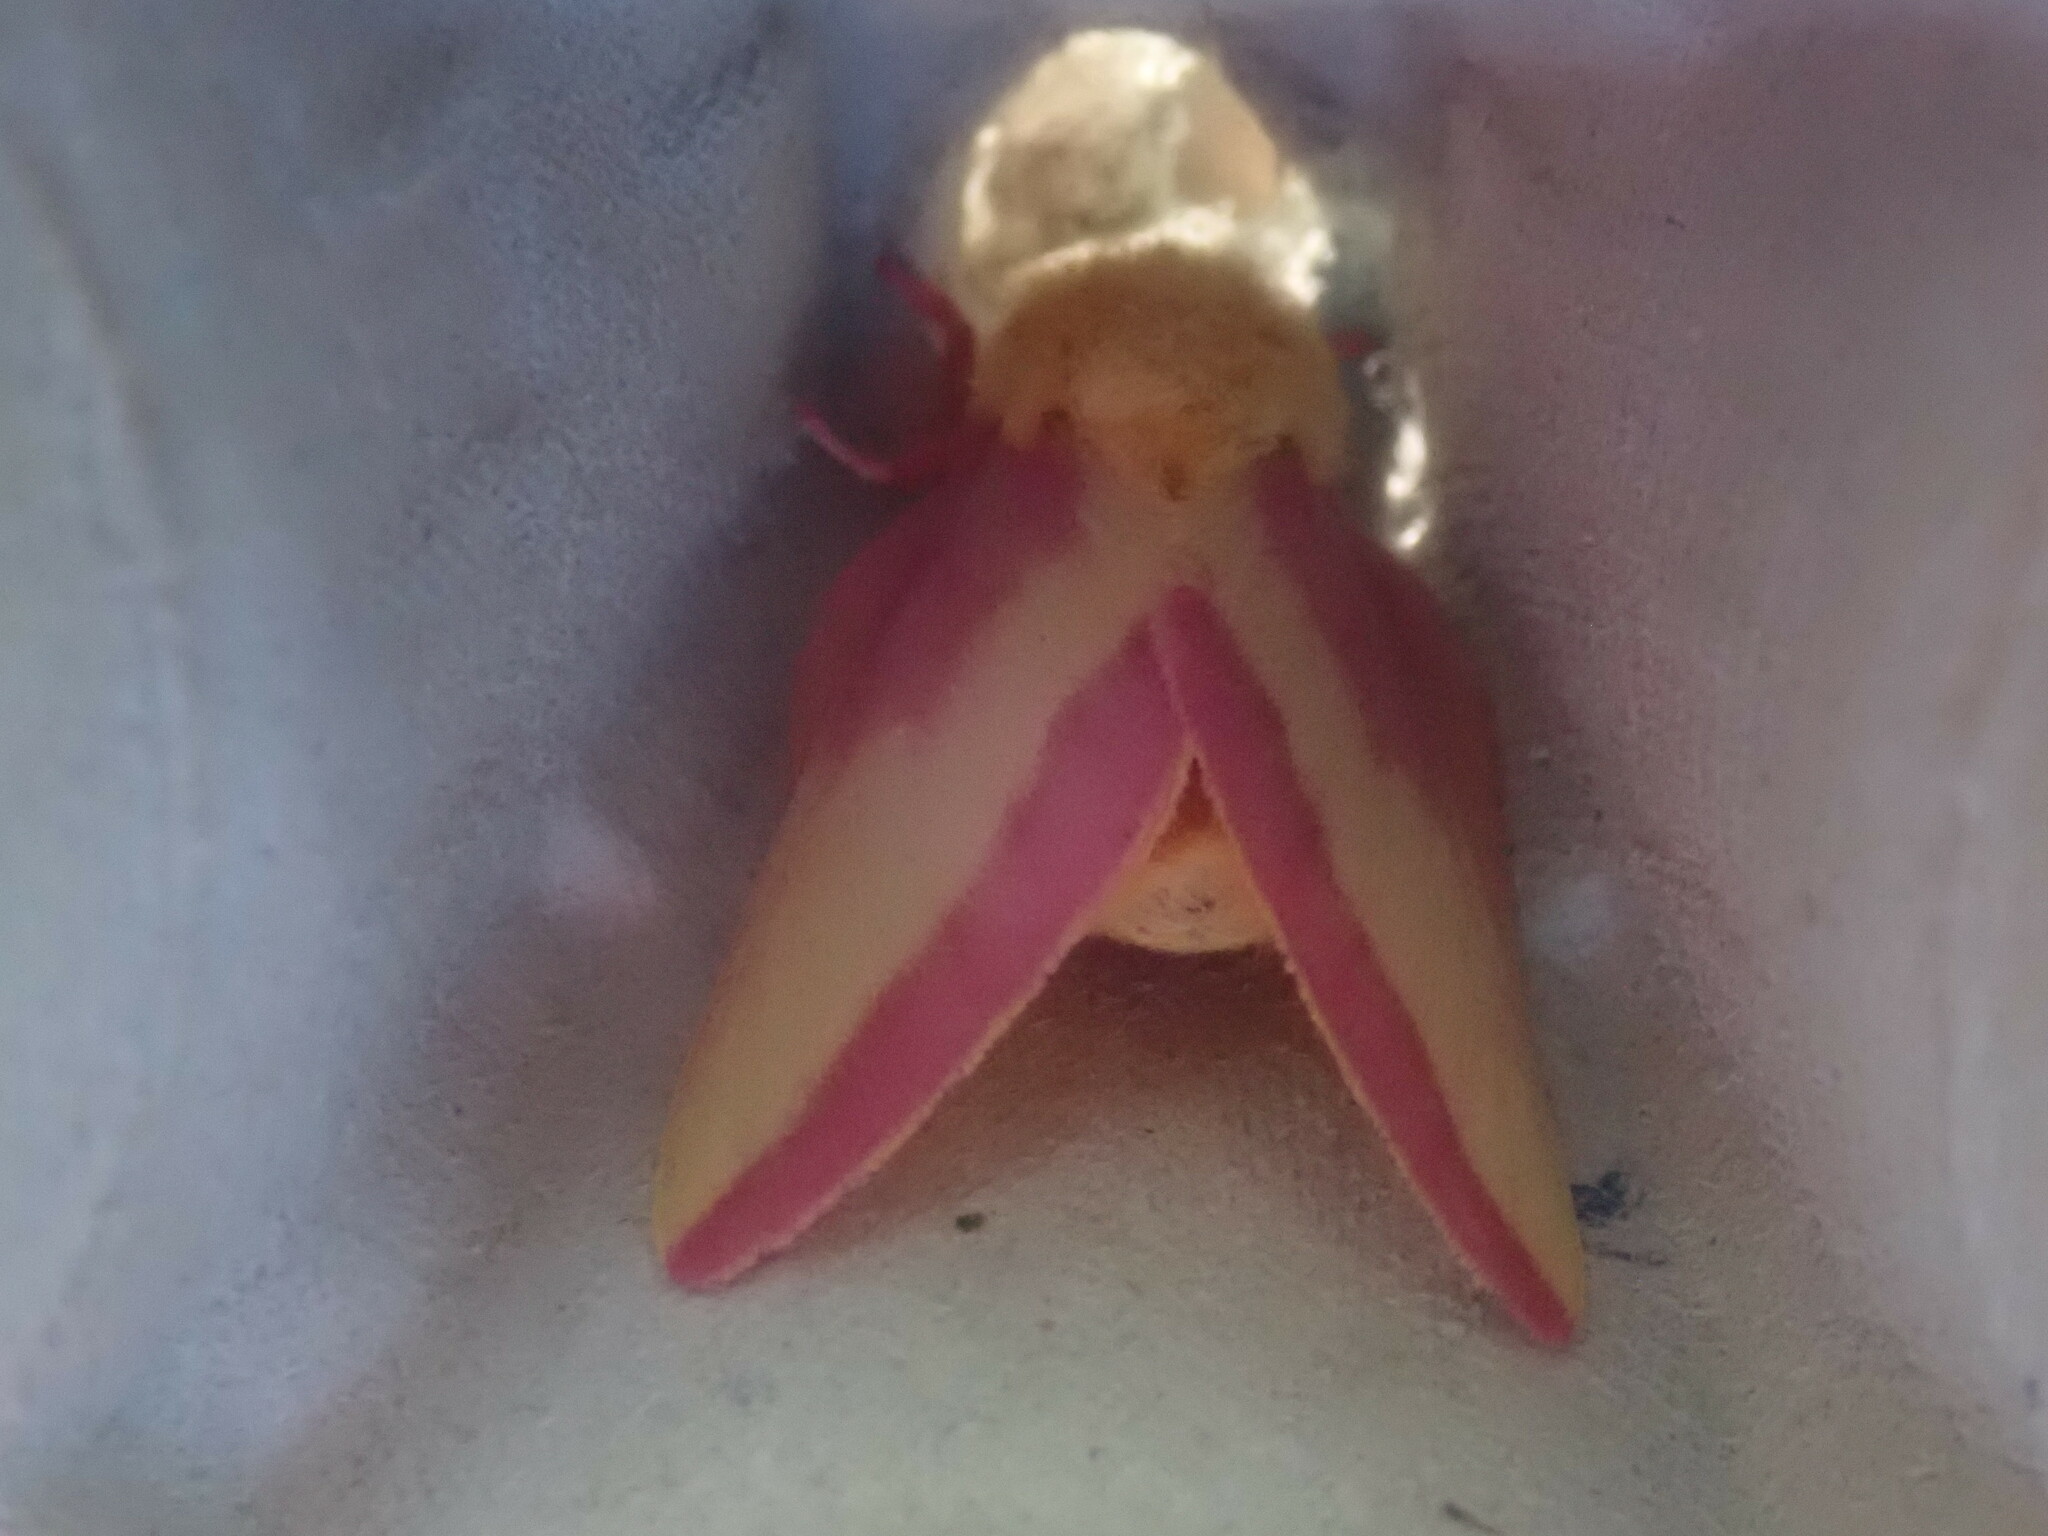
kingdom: Animalia
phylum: Arthropoda
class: Insecta
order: Lepidoptera
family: Saturniidae
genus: Dryocampa
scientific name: Dryocampa rubicunda
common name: Rosy maple moth
